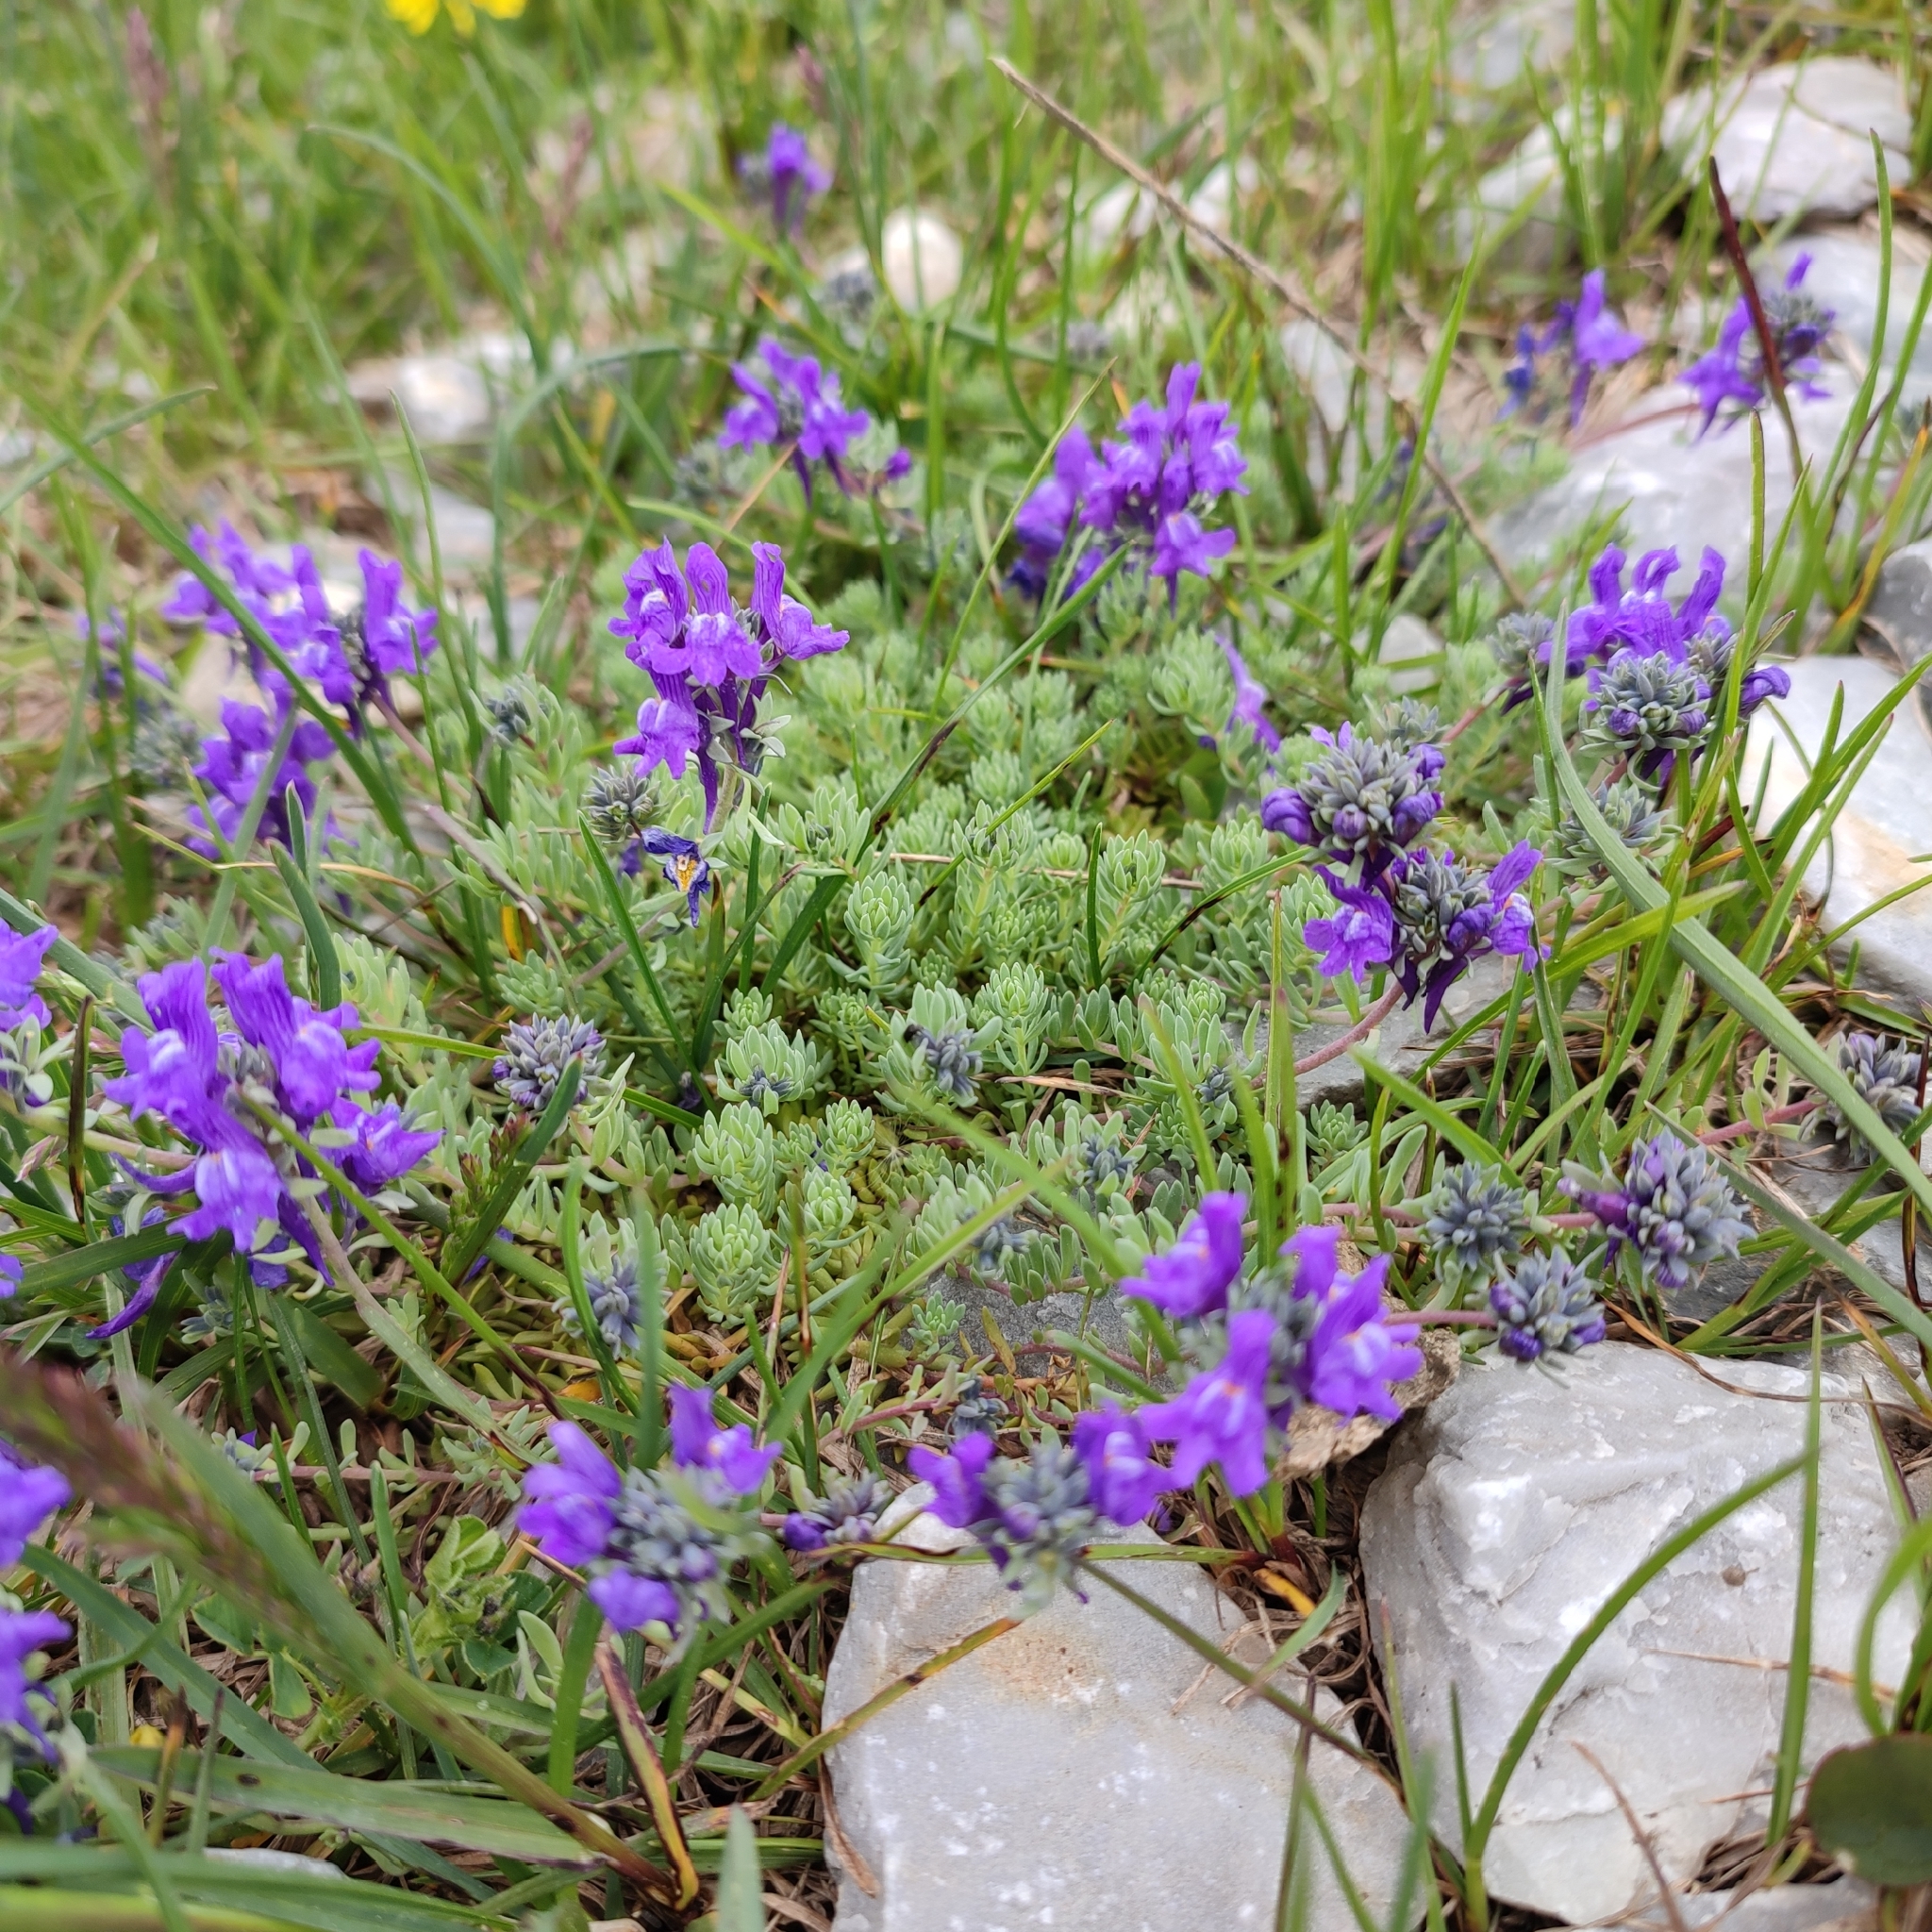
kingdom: Plantae
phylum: Tracheophyta
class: Magnoliopsida
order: Lamiales
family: Plantaginaceae
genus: Linaria
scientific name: Linaria alpina
